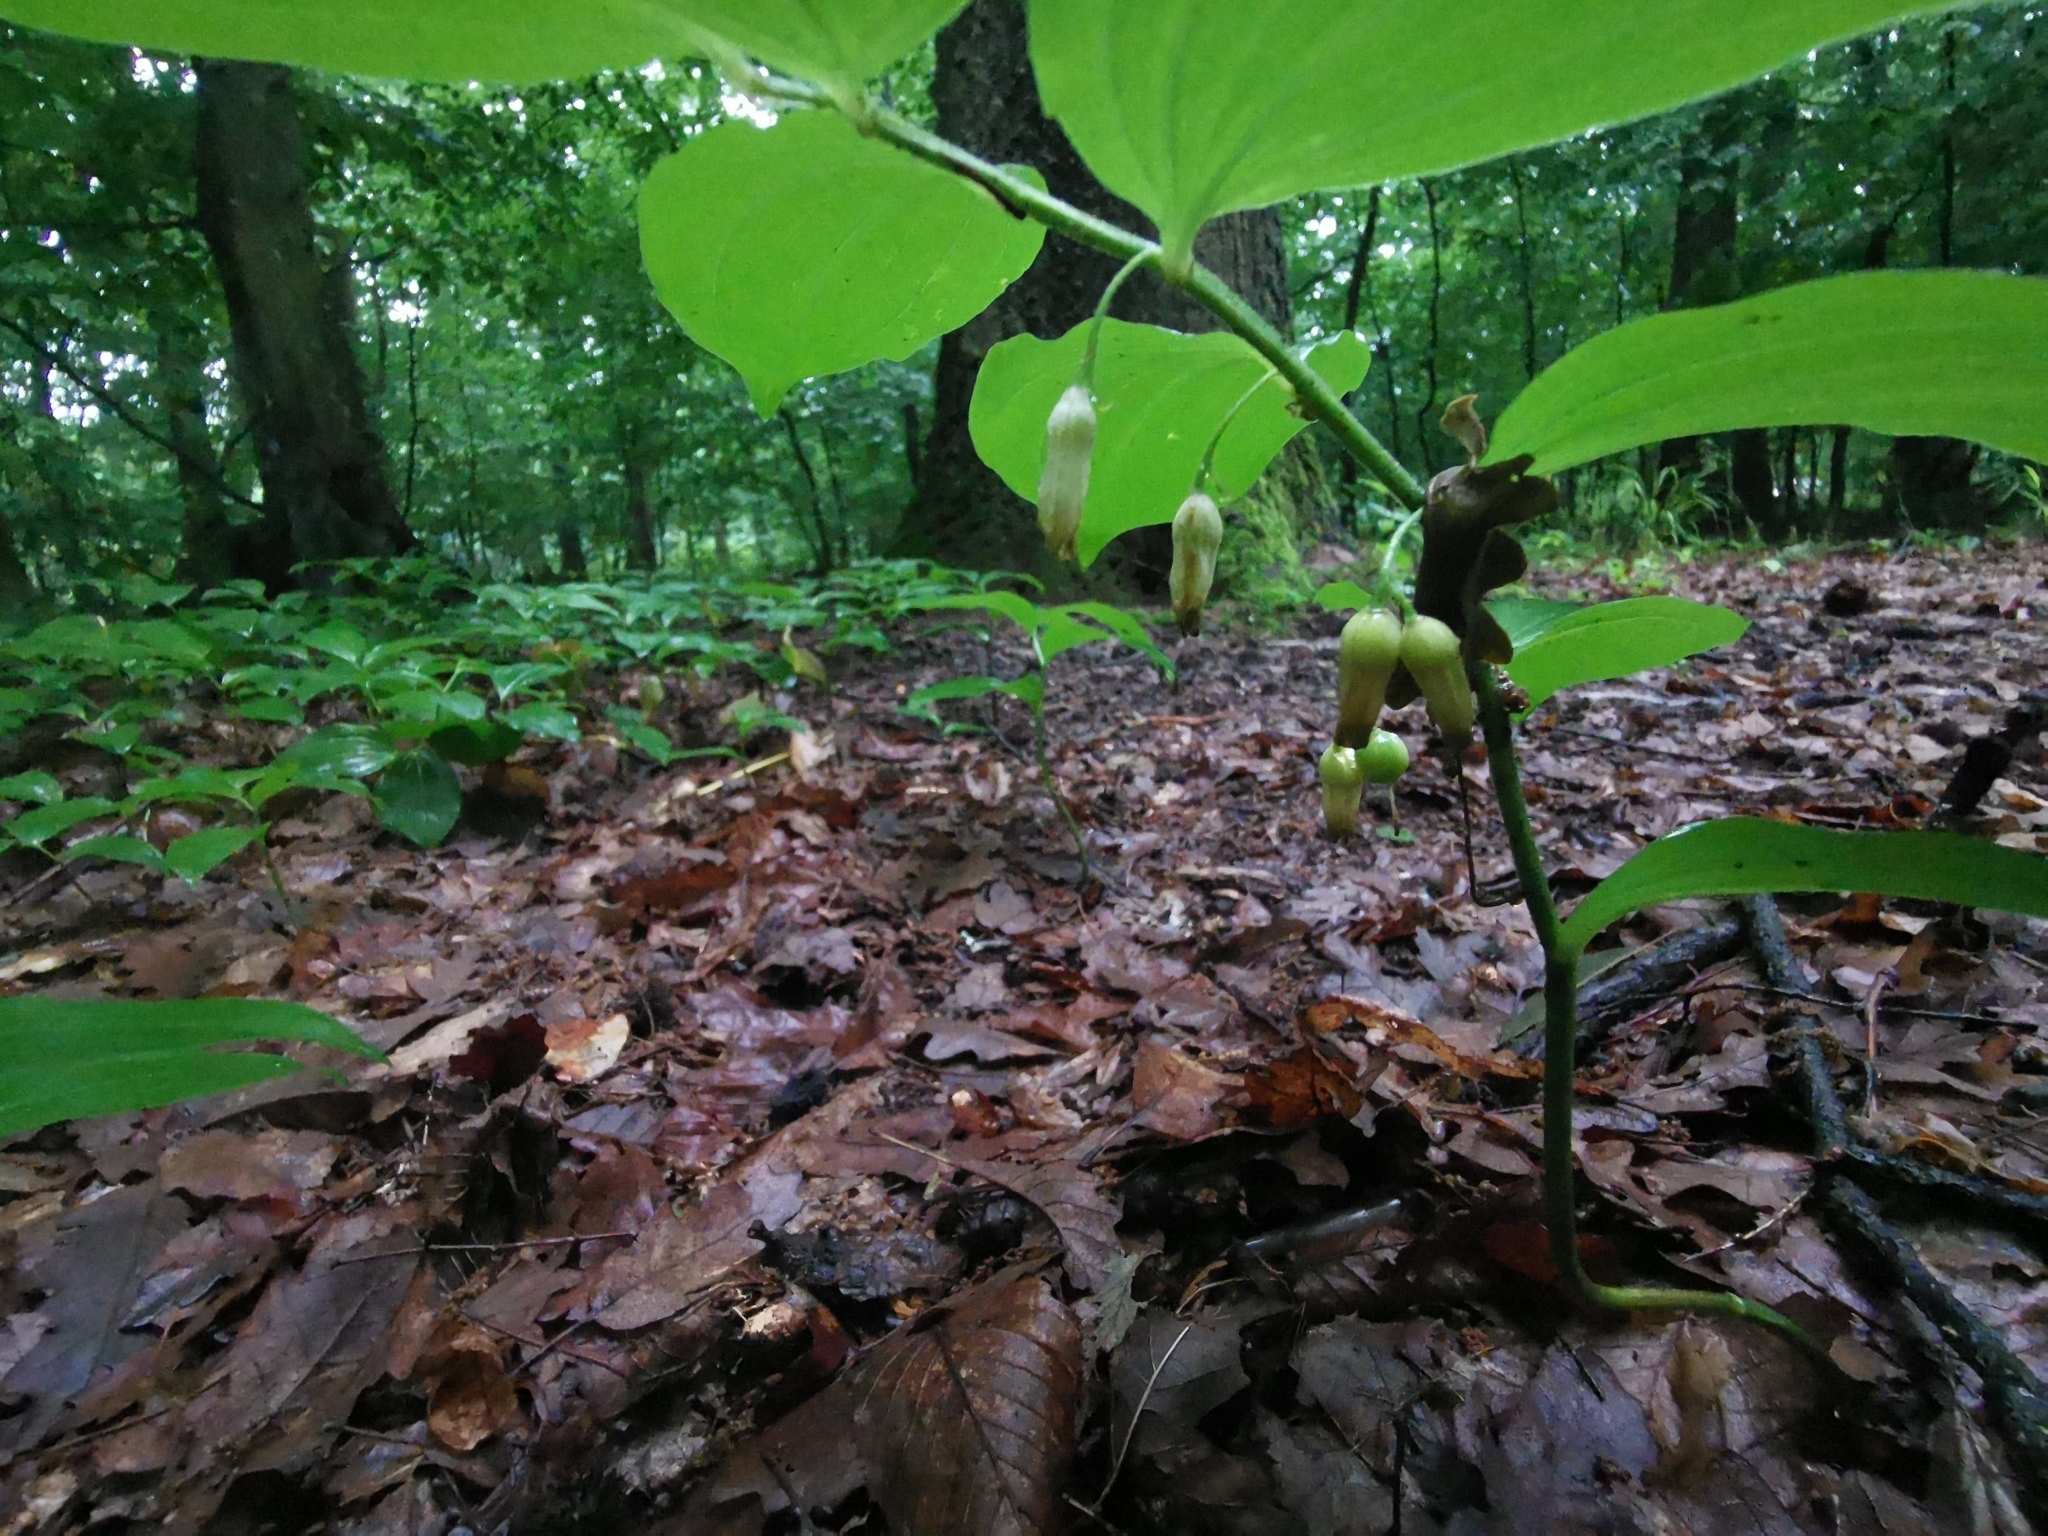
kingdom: Plantae
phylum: Tracheophyta
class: Liliopsida
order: Asparagales
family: Asparagaceae
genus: Polygonatum
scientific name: Polygonatum latifolium
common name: Broadleaf solomon's seal
